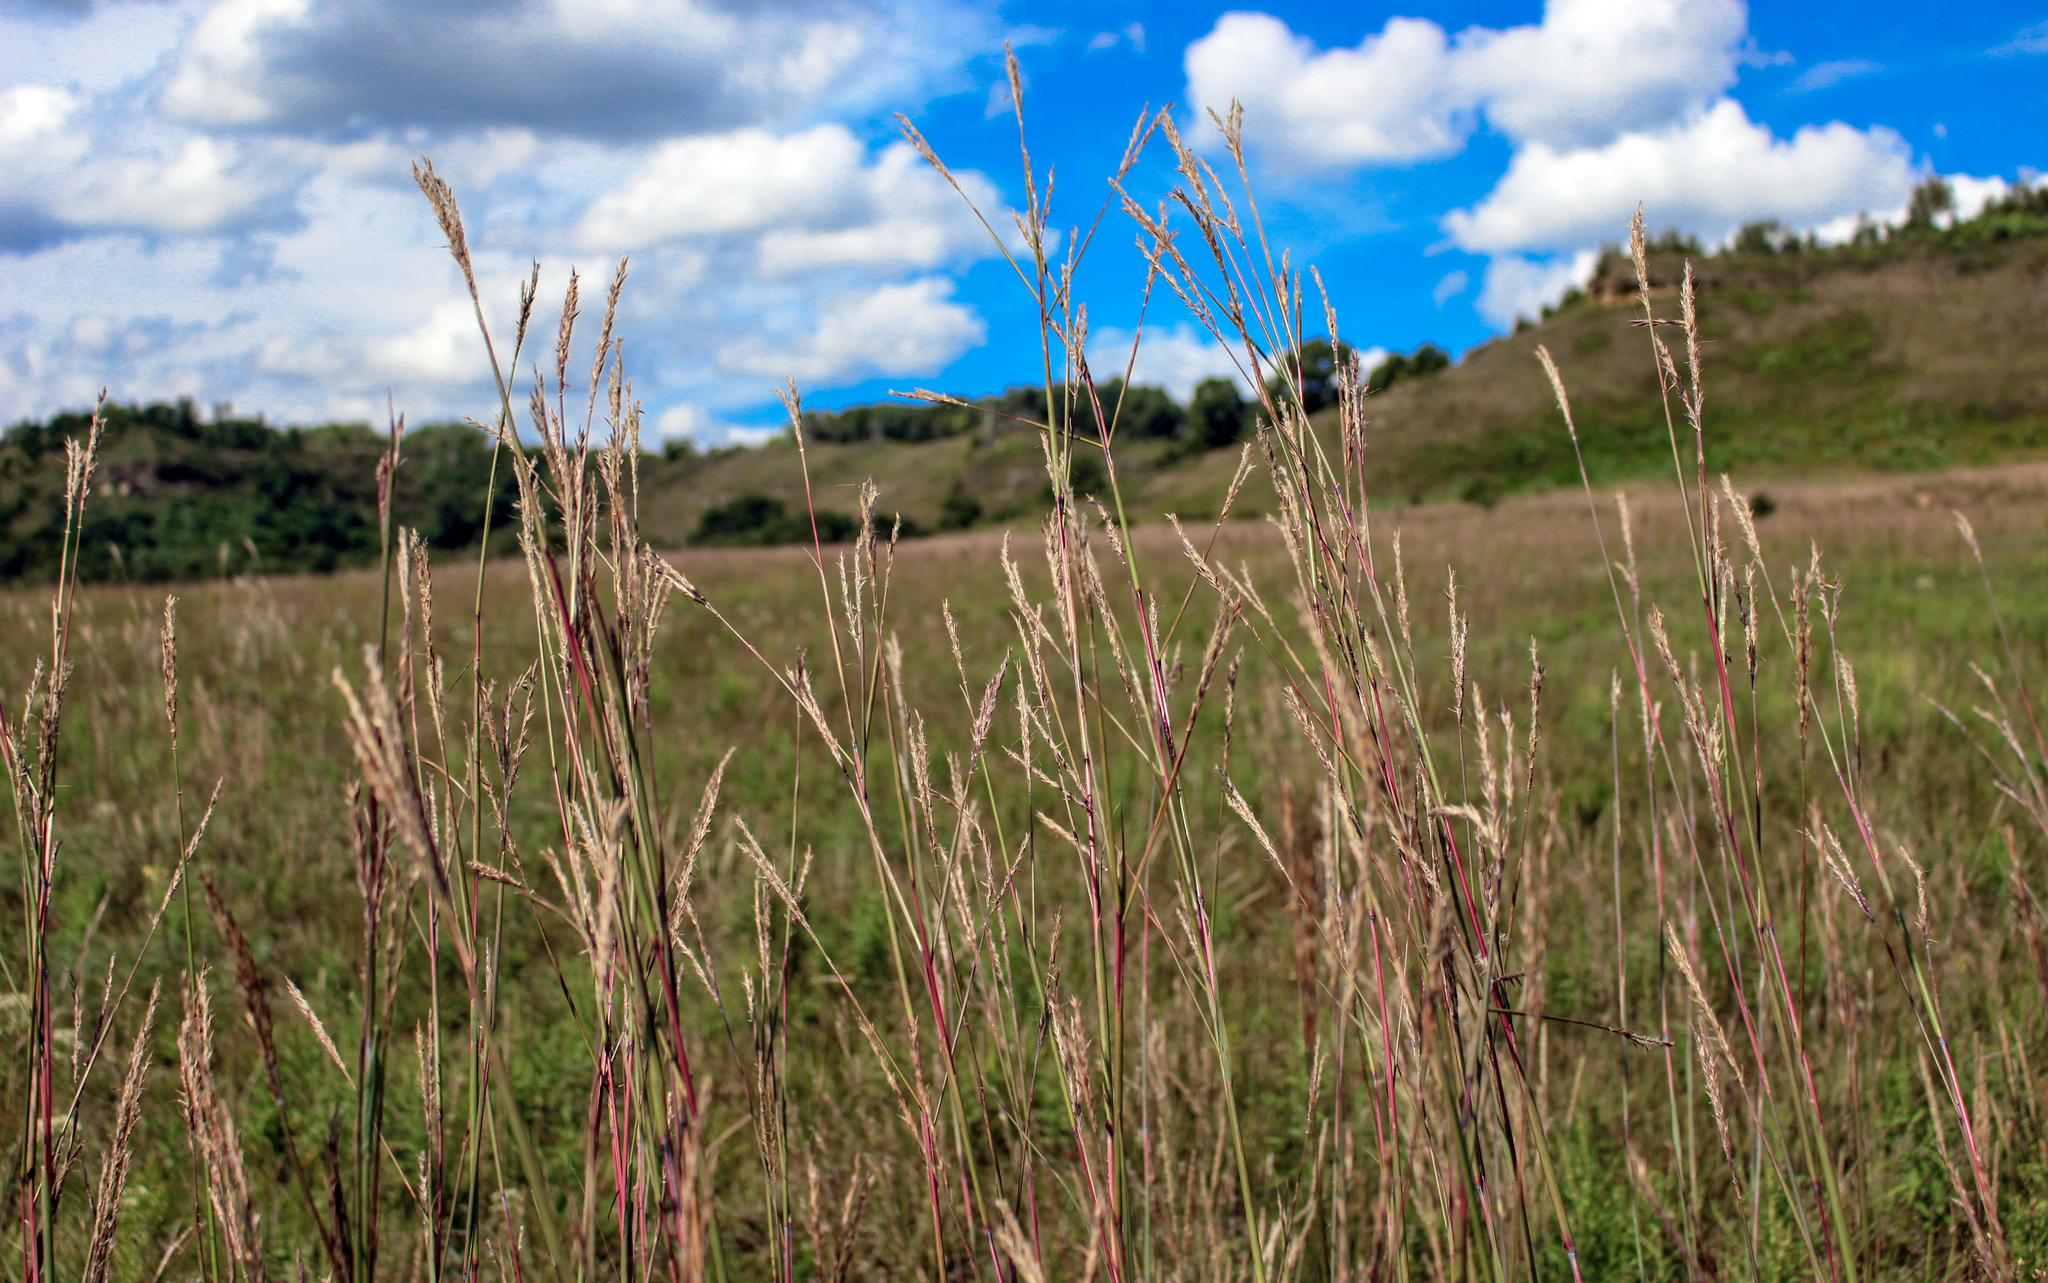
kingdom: Plantae
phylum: Tracheophyta
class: Liliopsida
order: Poales
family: Poaceae
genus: Andropogon
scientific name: Andropogon gerardi
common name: Big bluestem
